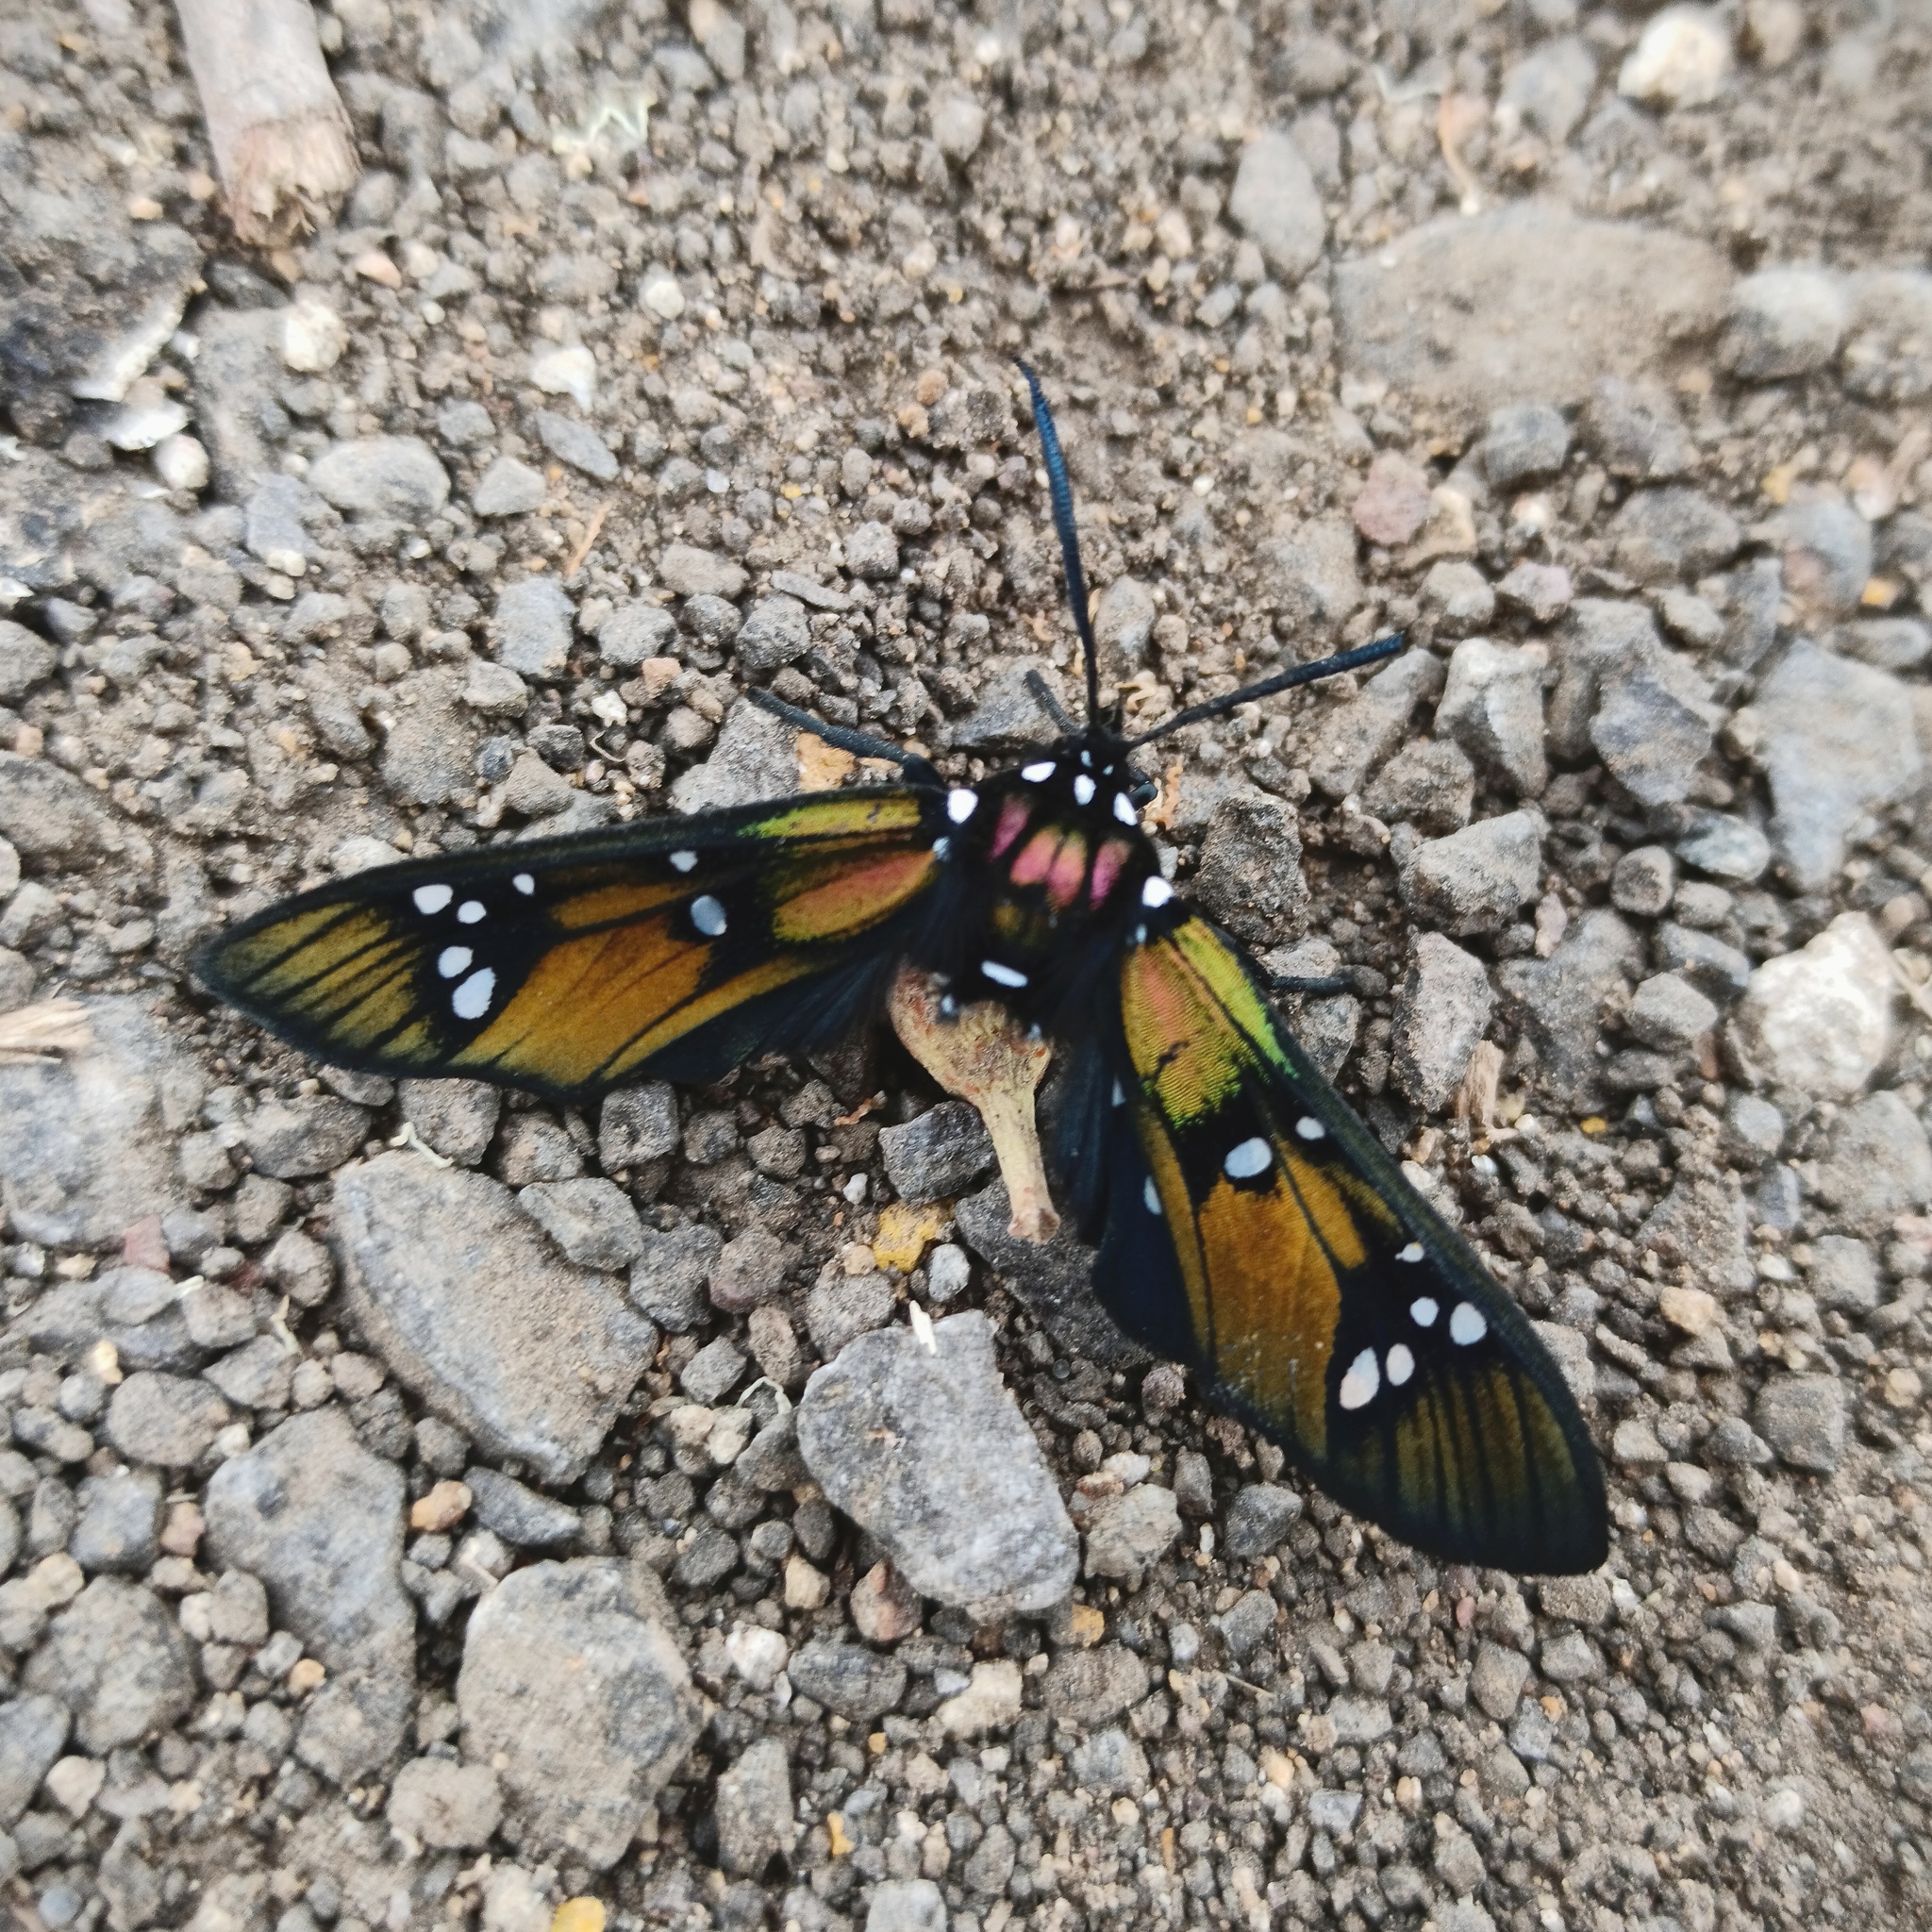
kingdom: Animalia
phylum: Arthropoda
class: Insecta
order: Lepidoptera
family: Erebidae
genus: Chrysocale
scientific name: Chrysocale principalis
